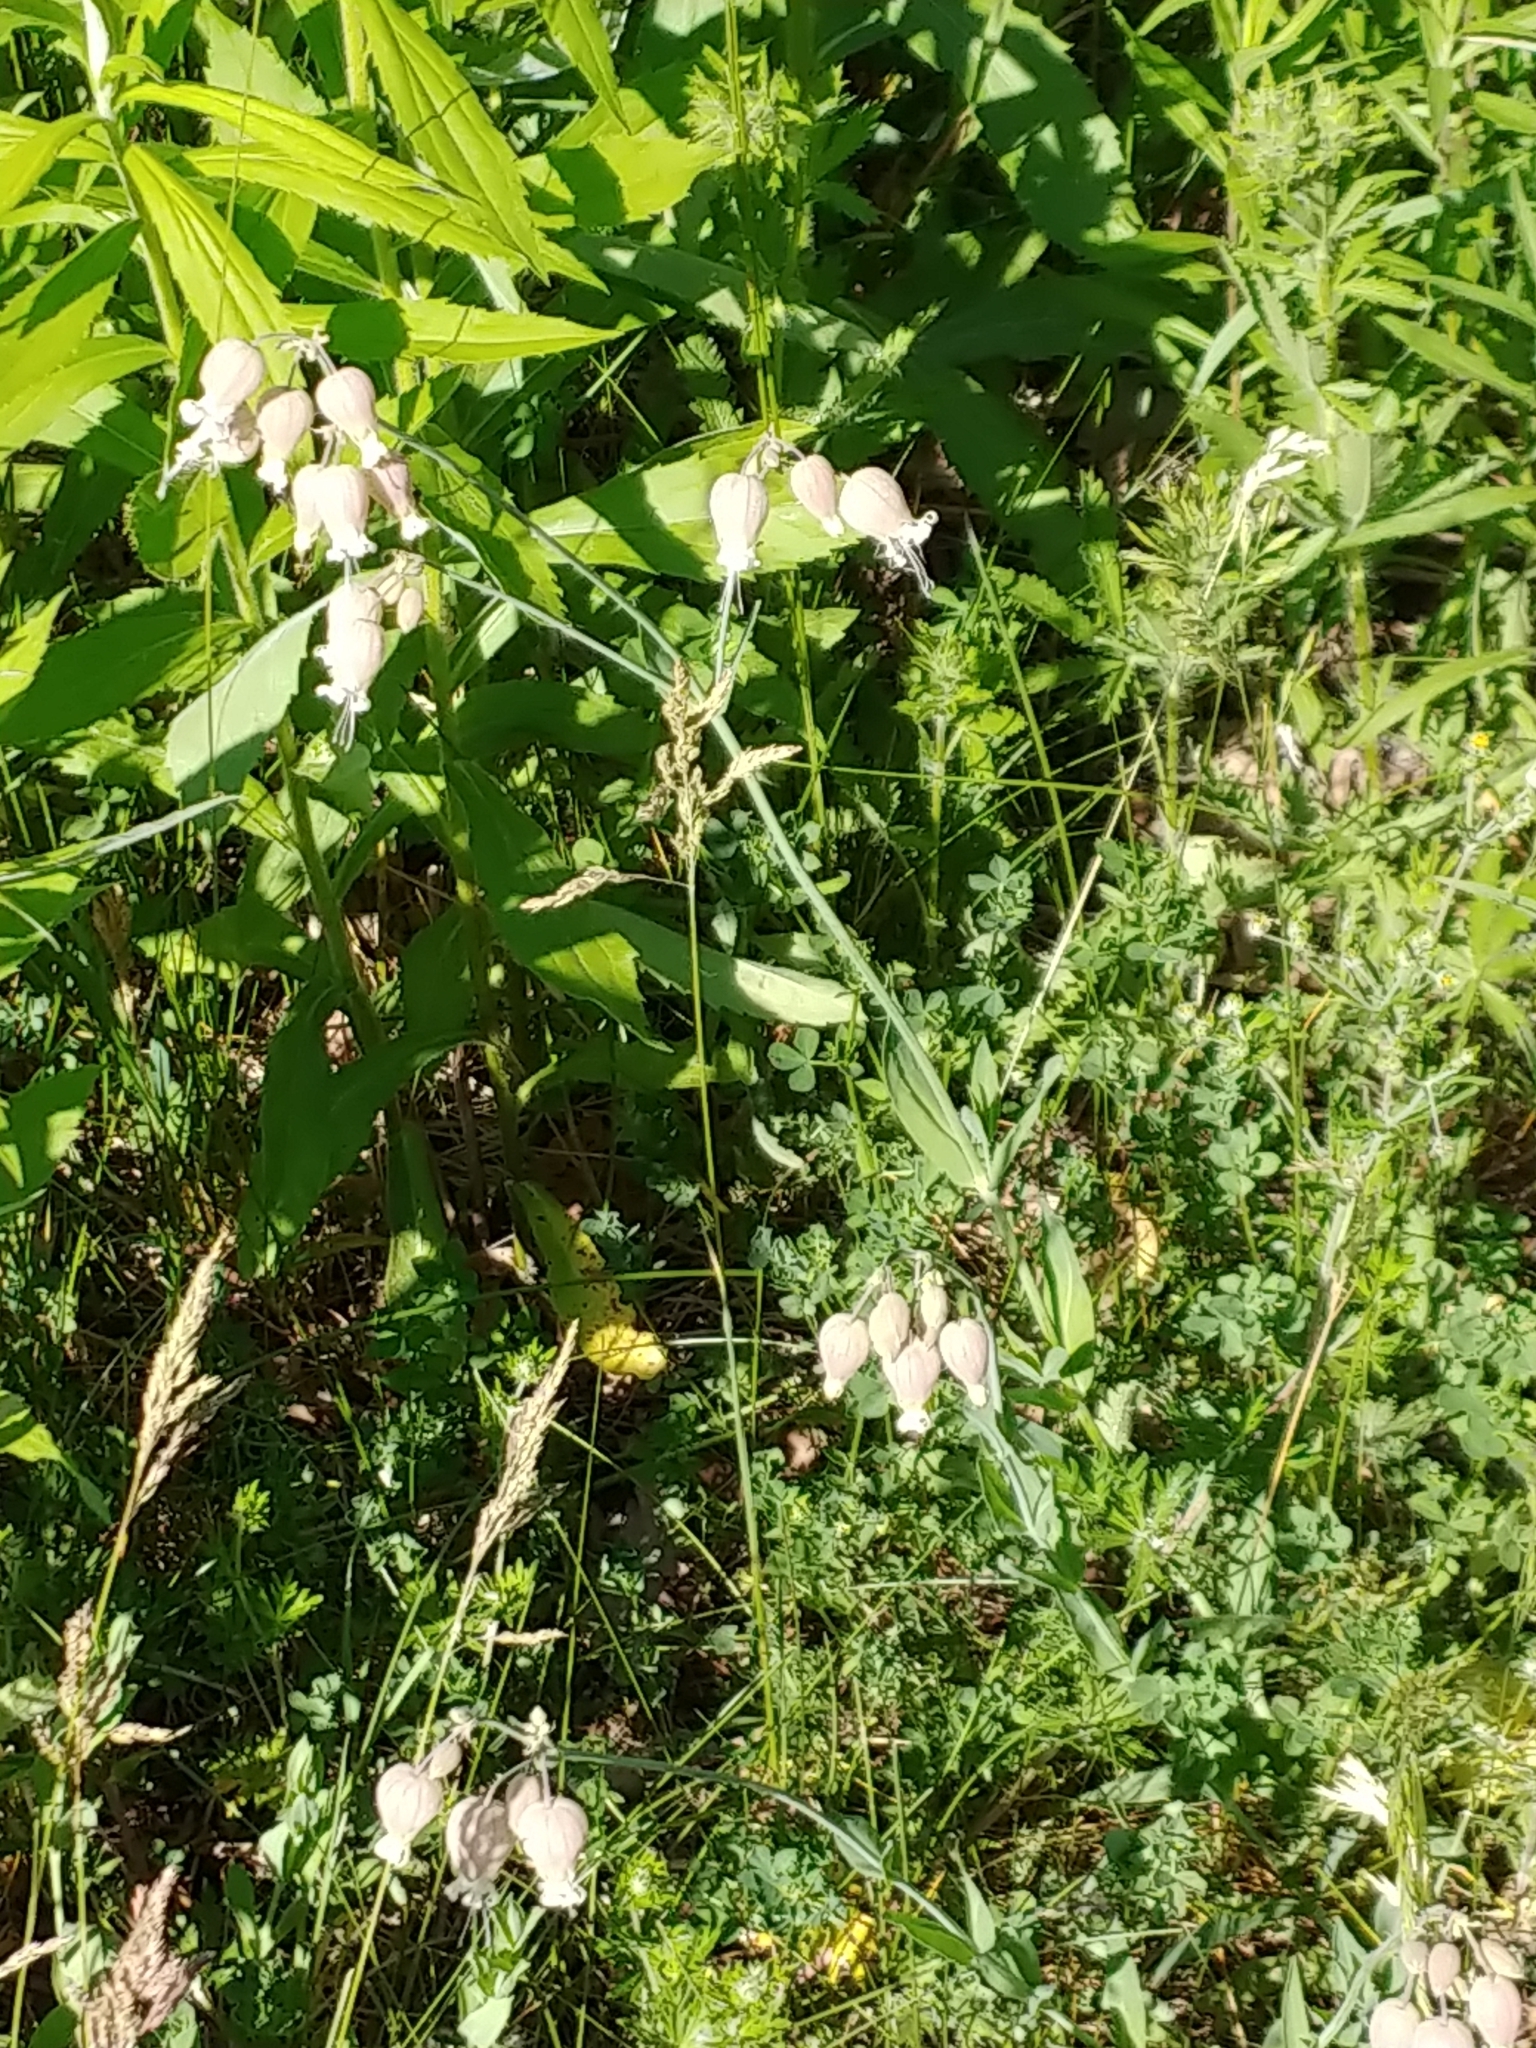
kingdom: Plantae
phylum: Tracheophyta
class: Magnoliopsida
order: Caryophyllales
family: Caryophyllaceae
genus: Silene
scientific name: Silene vulgaris
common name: Bladder campion
